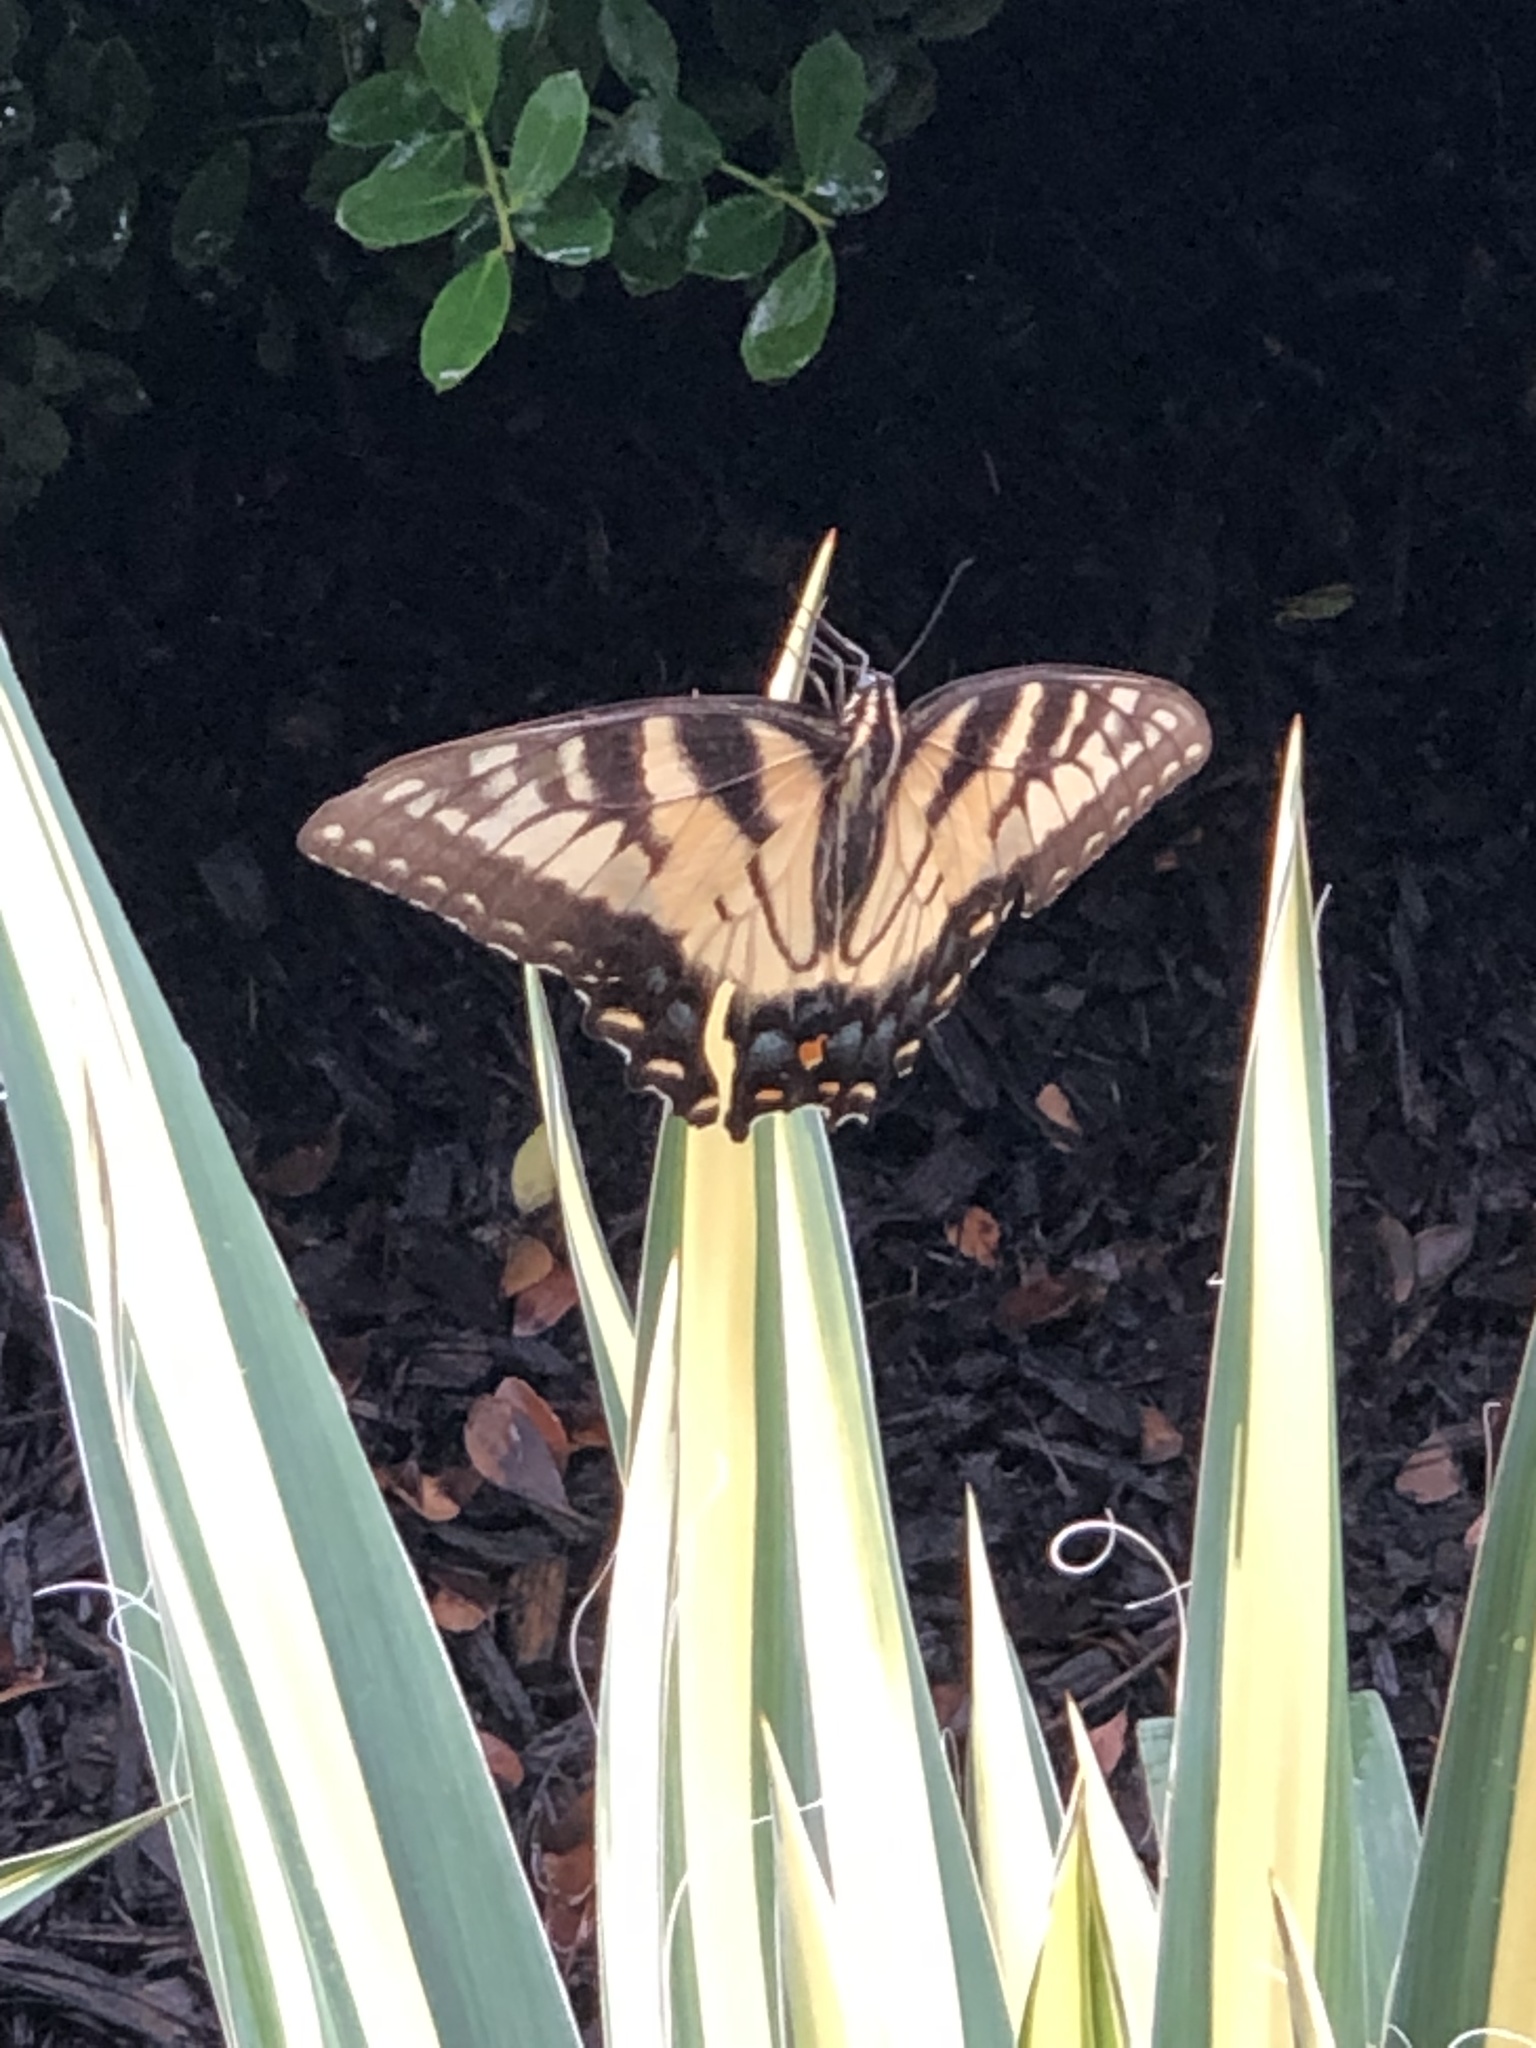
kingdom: Animalia
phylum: Arthropoda
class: Insecta
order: Lepidoptera
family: Papilionidae
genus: Papilio
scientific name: Papilio glaucus
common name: Tiger swallowtail
